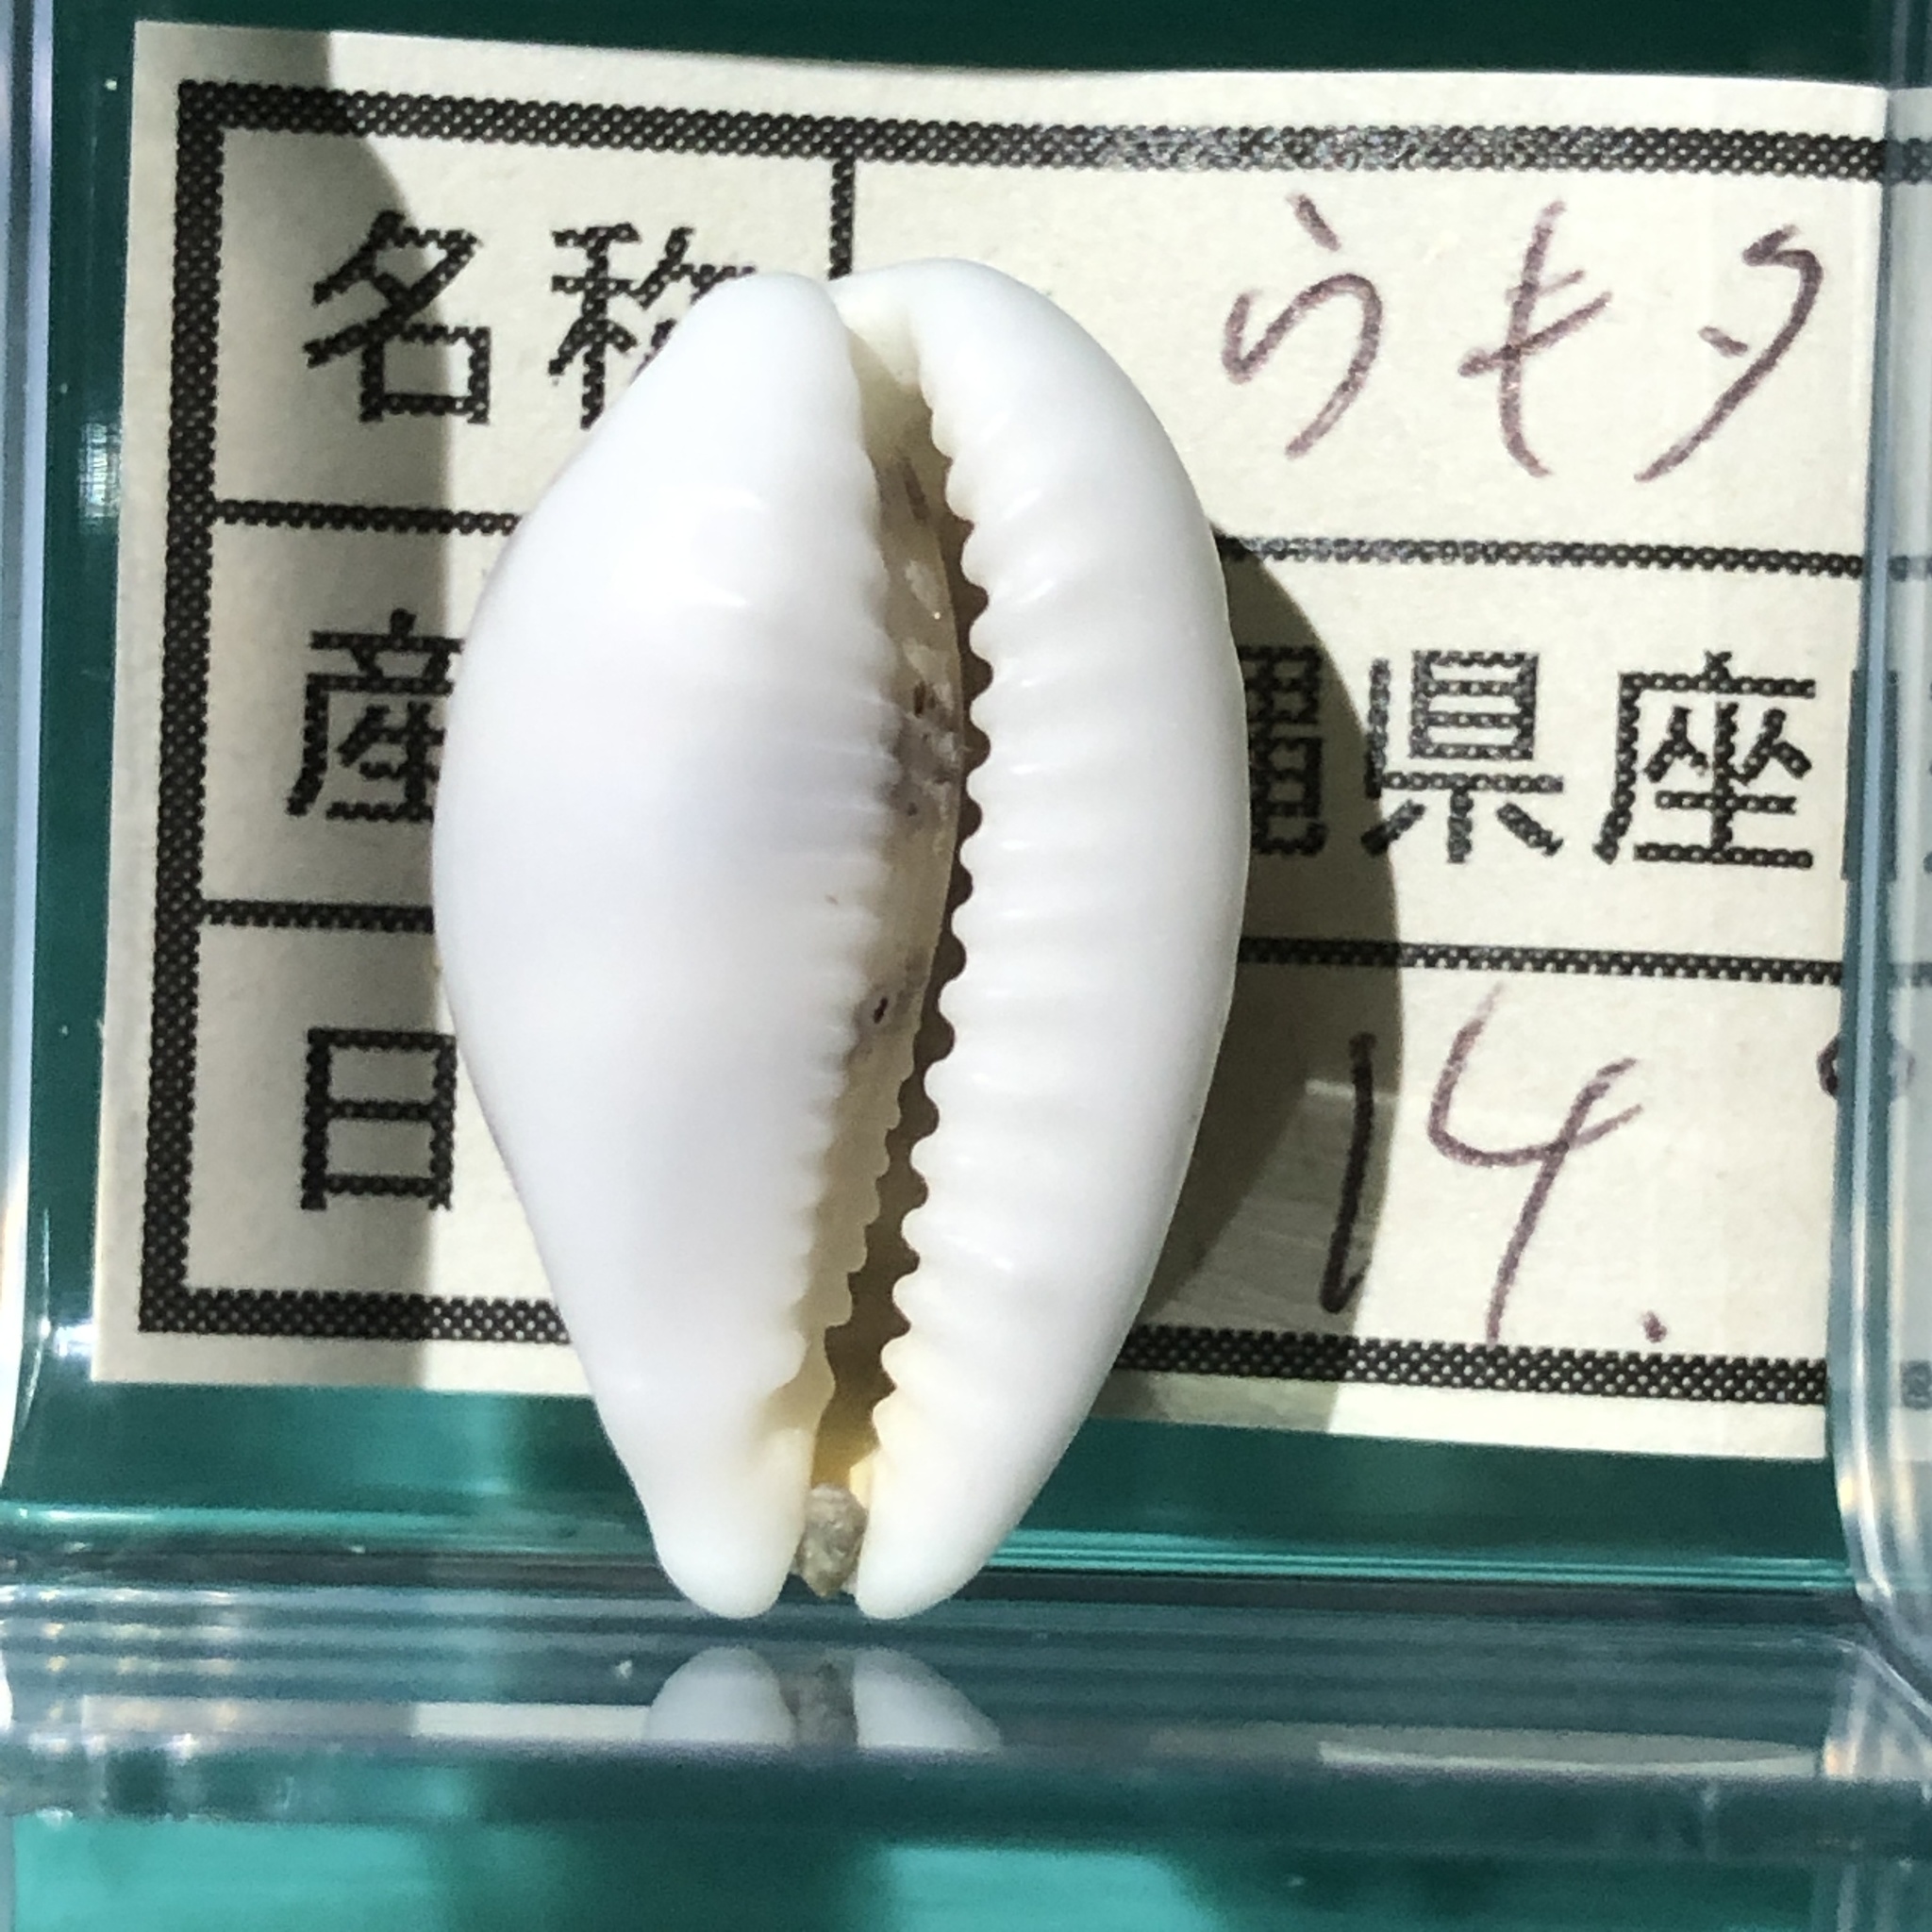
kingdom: Animalia
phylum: Mollusca
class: Gastropoda
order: Littorinimorpha
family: Cypraeidae
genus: Palmadusta
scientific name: Palmadusta asellus
